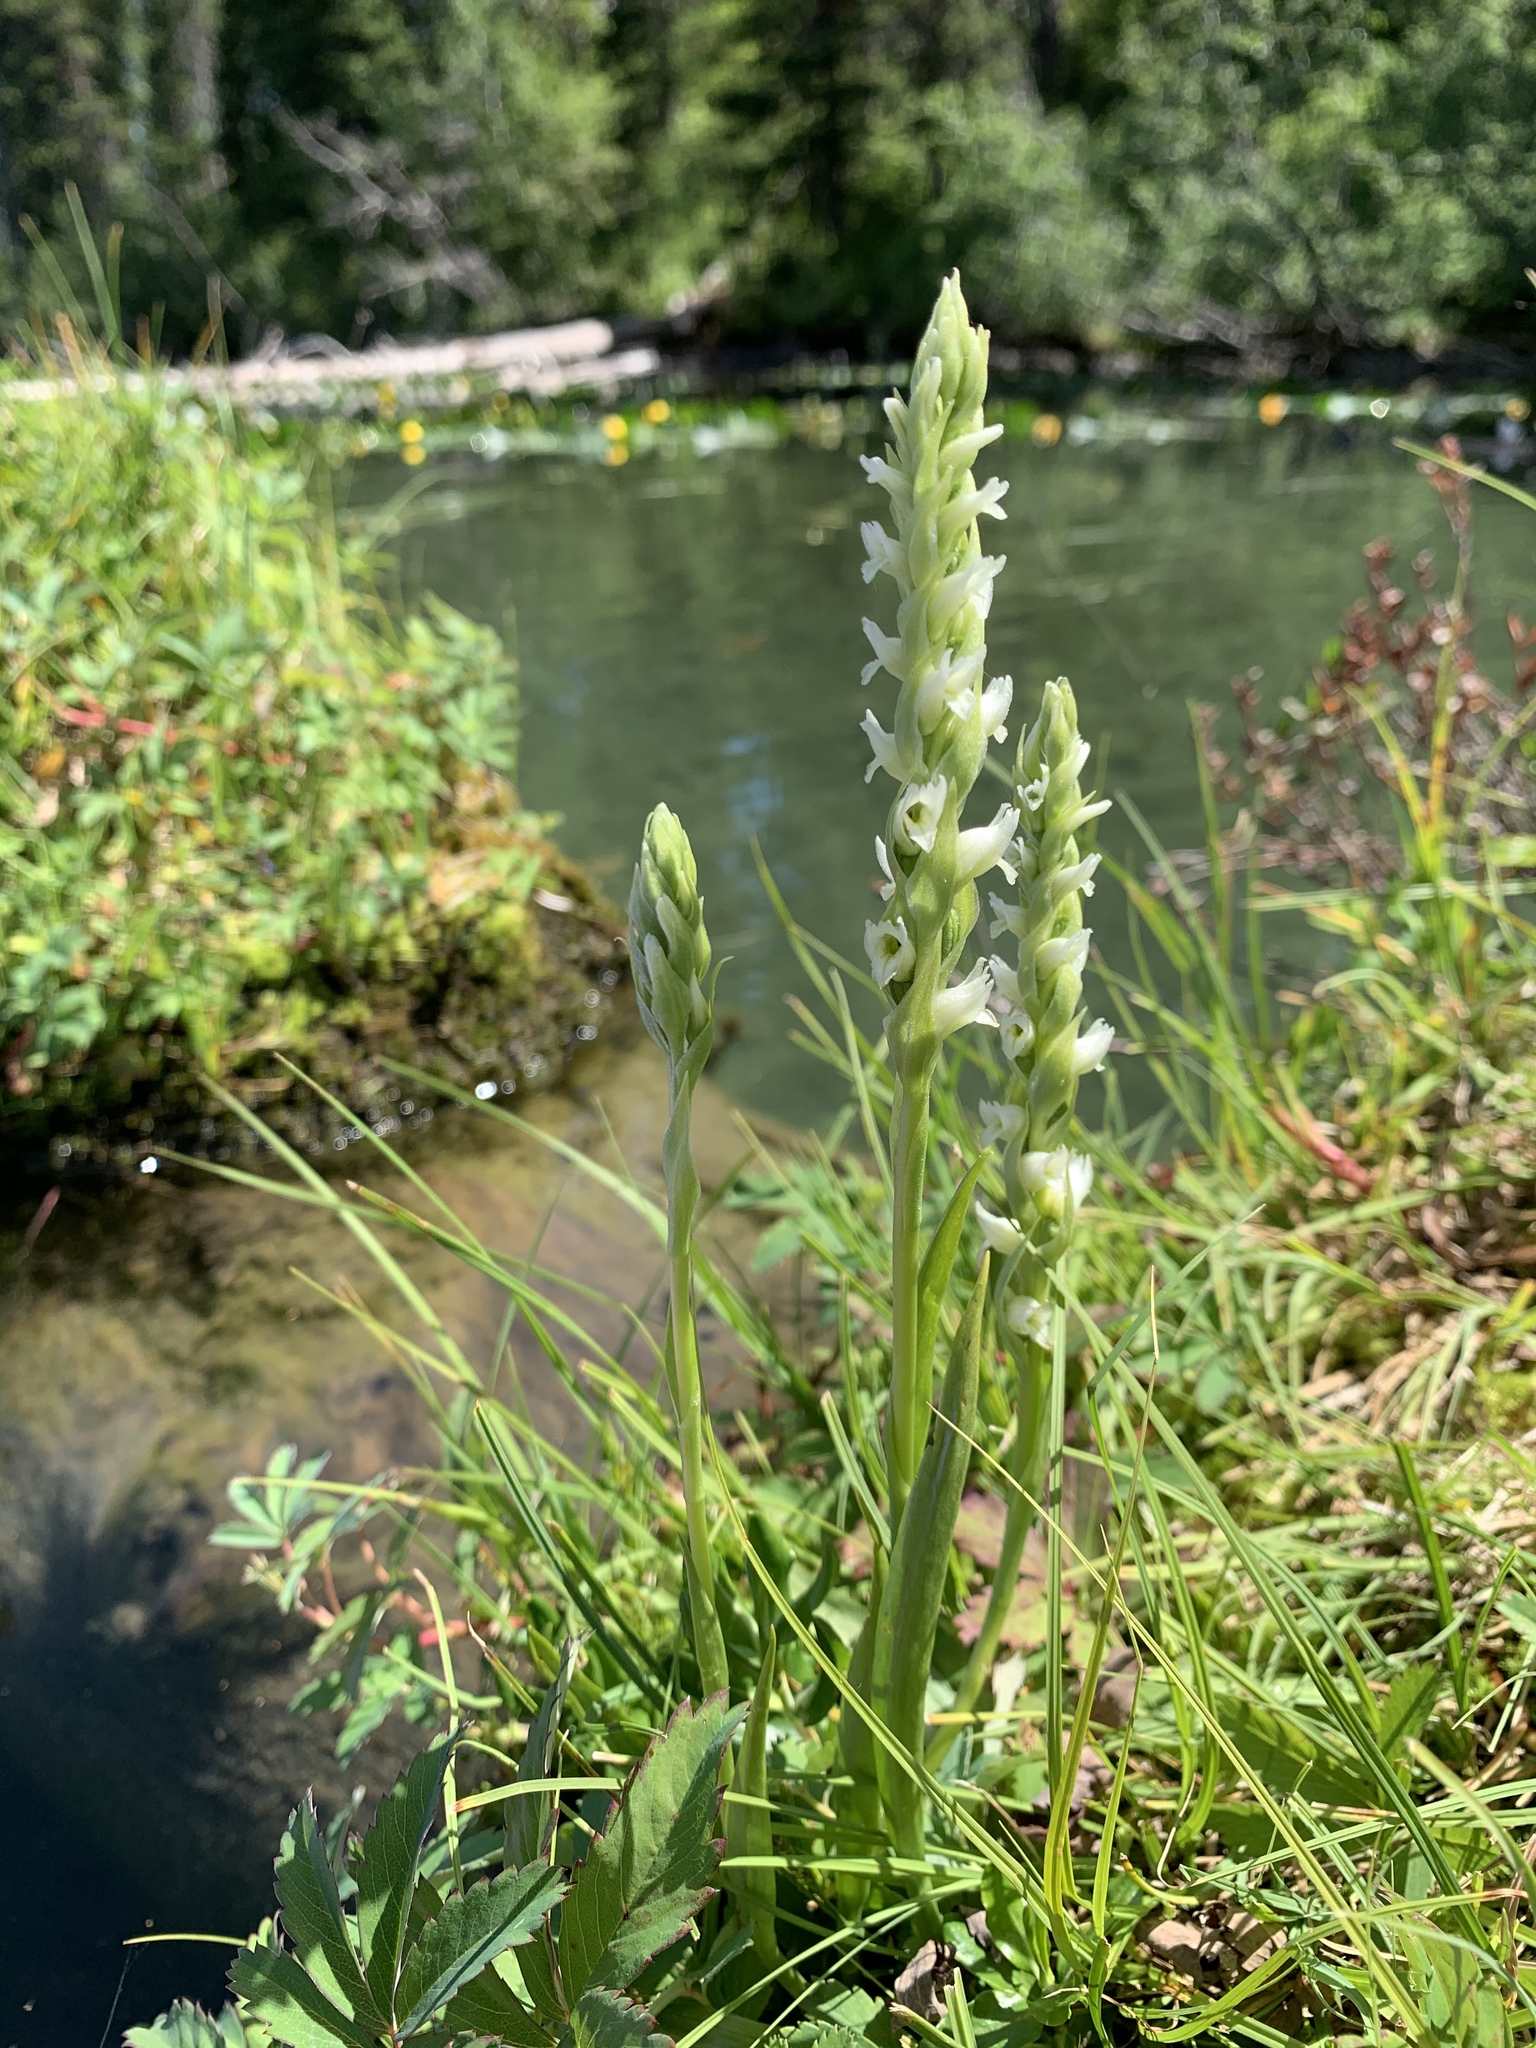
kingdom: Plantae
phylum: Tracheophyta
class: Liliopsida
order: Asparagales
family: Orchidaceae
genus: Spiranthes
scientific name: Spiranthes romanzoffiana
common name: Irish lady's-tresses
